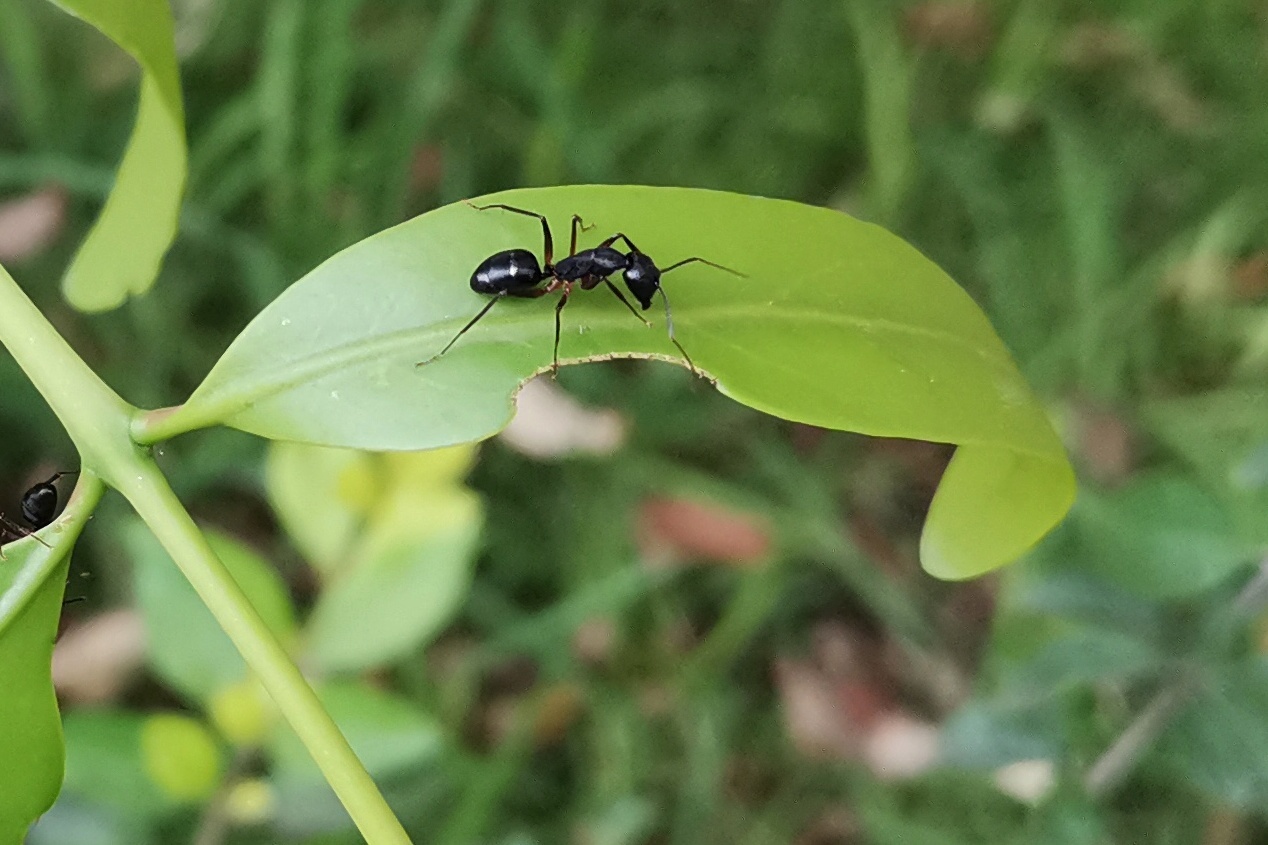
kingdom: Animalia
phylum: Arthropoda
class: Insecta
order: Hymenoptera
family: Formicidae
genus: Camponotus
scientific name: Camponotus compressus
